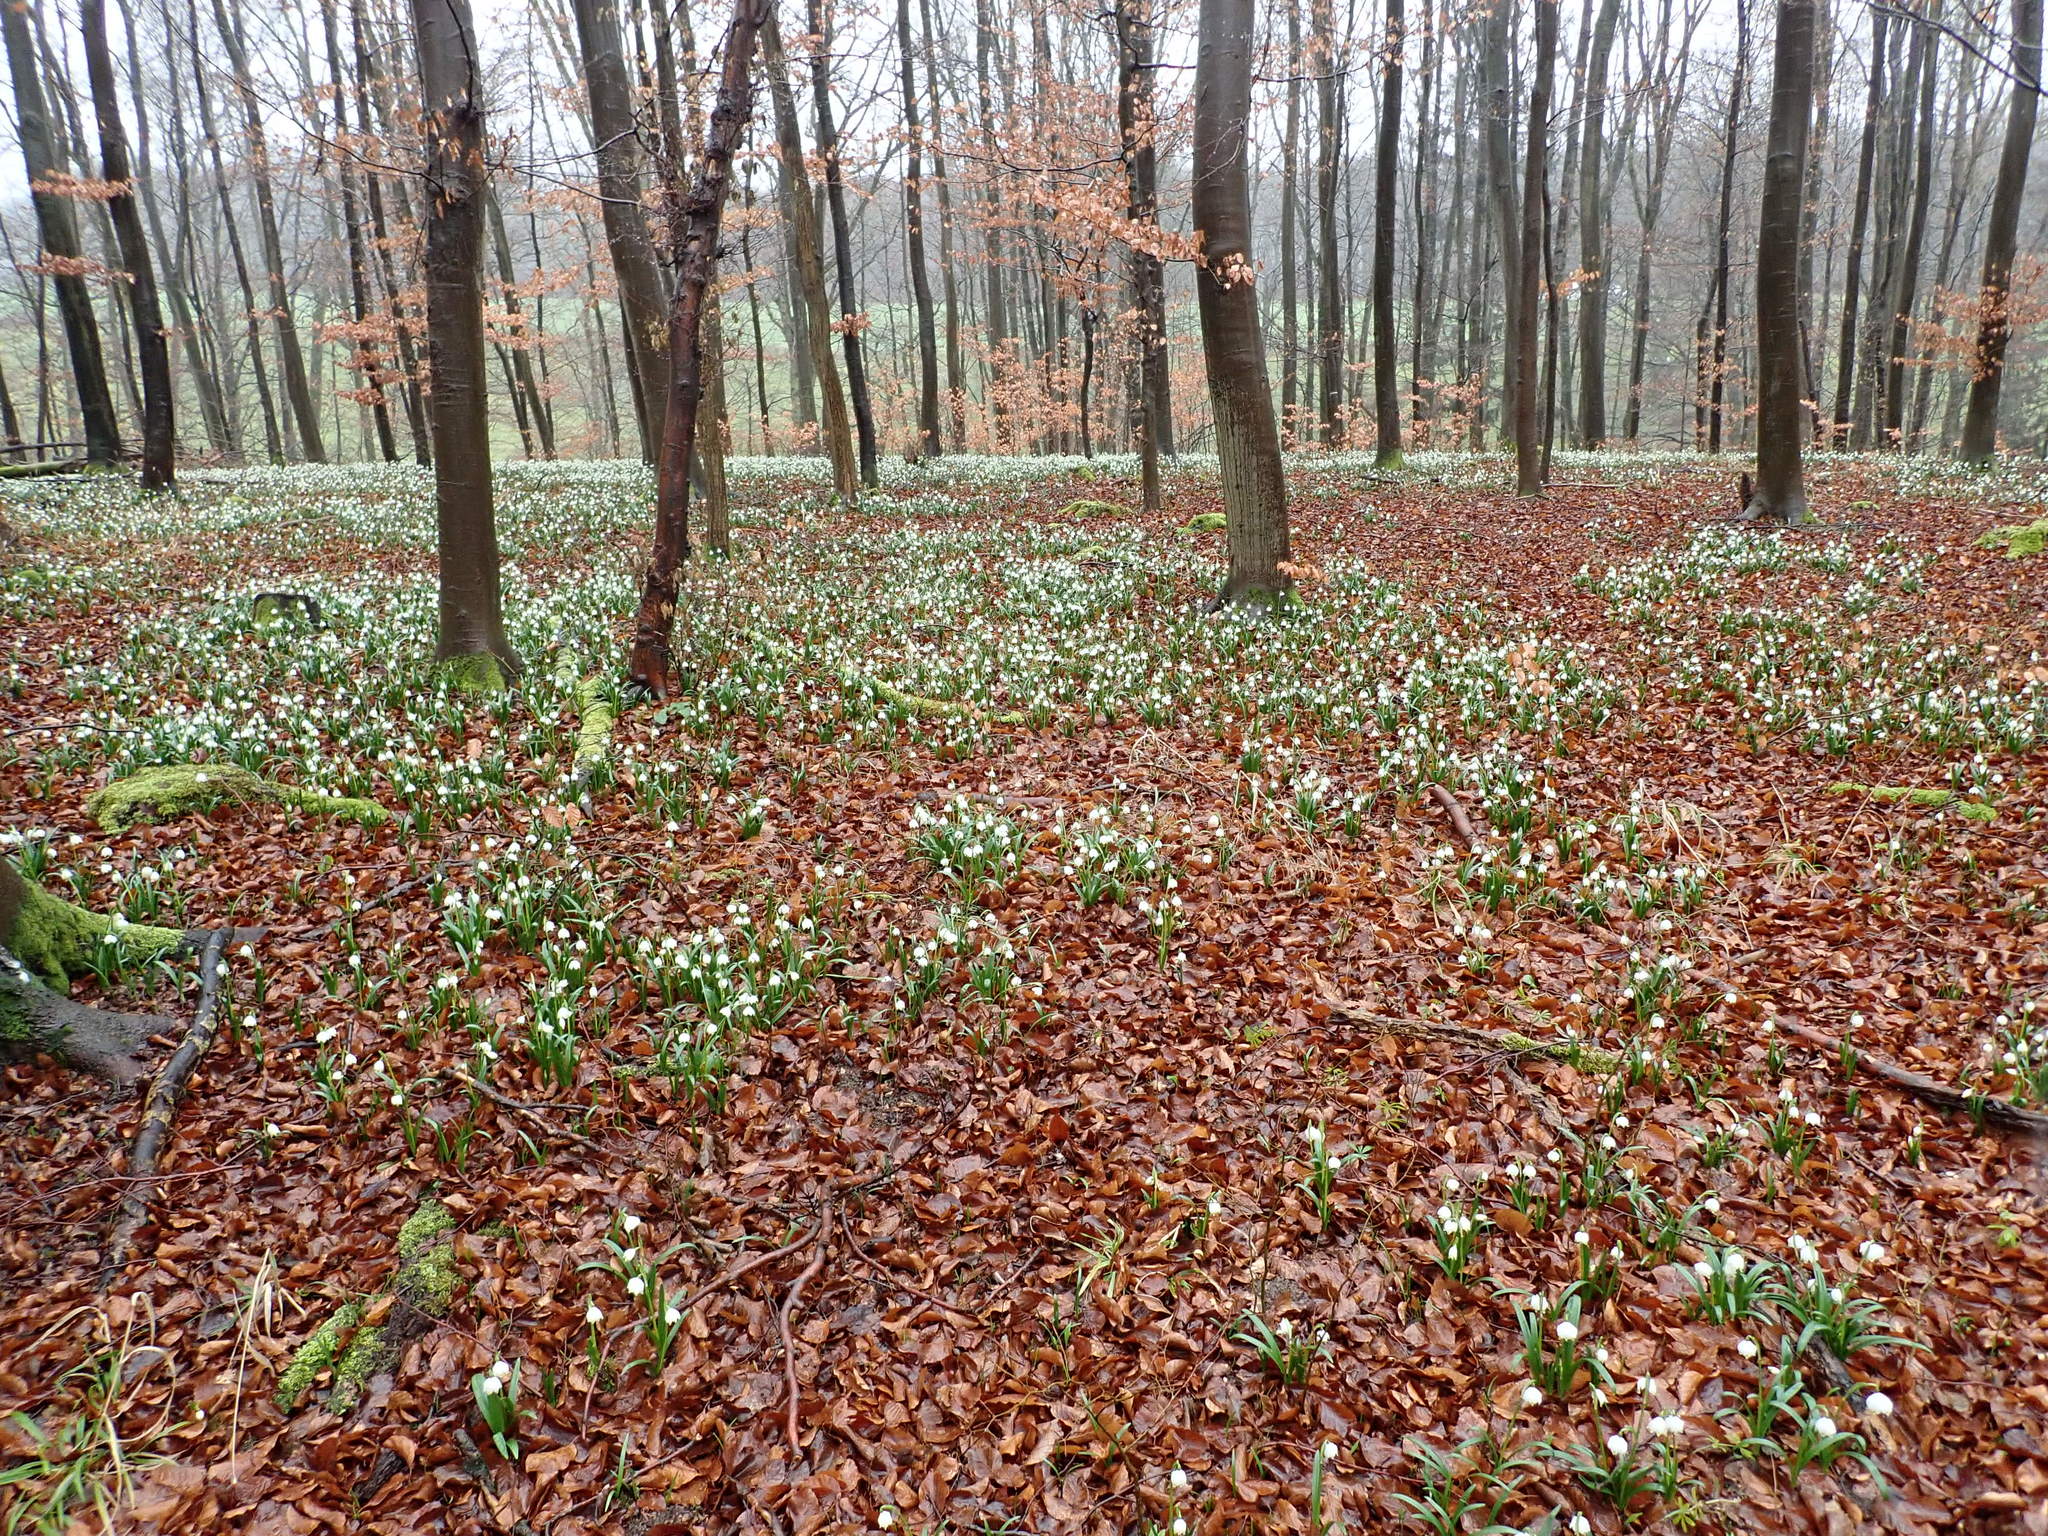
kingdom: Plantae
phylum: Tracheophyta
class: Liliopsida
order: Asparagales
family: Amaryllidaceae
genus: Leucojum
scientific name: Leucojum vernum
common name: Spring snowflake
